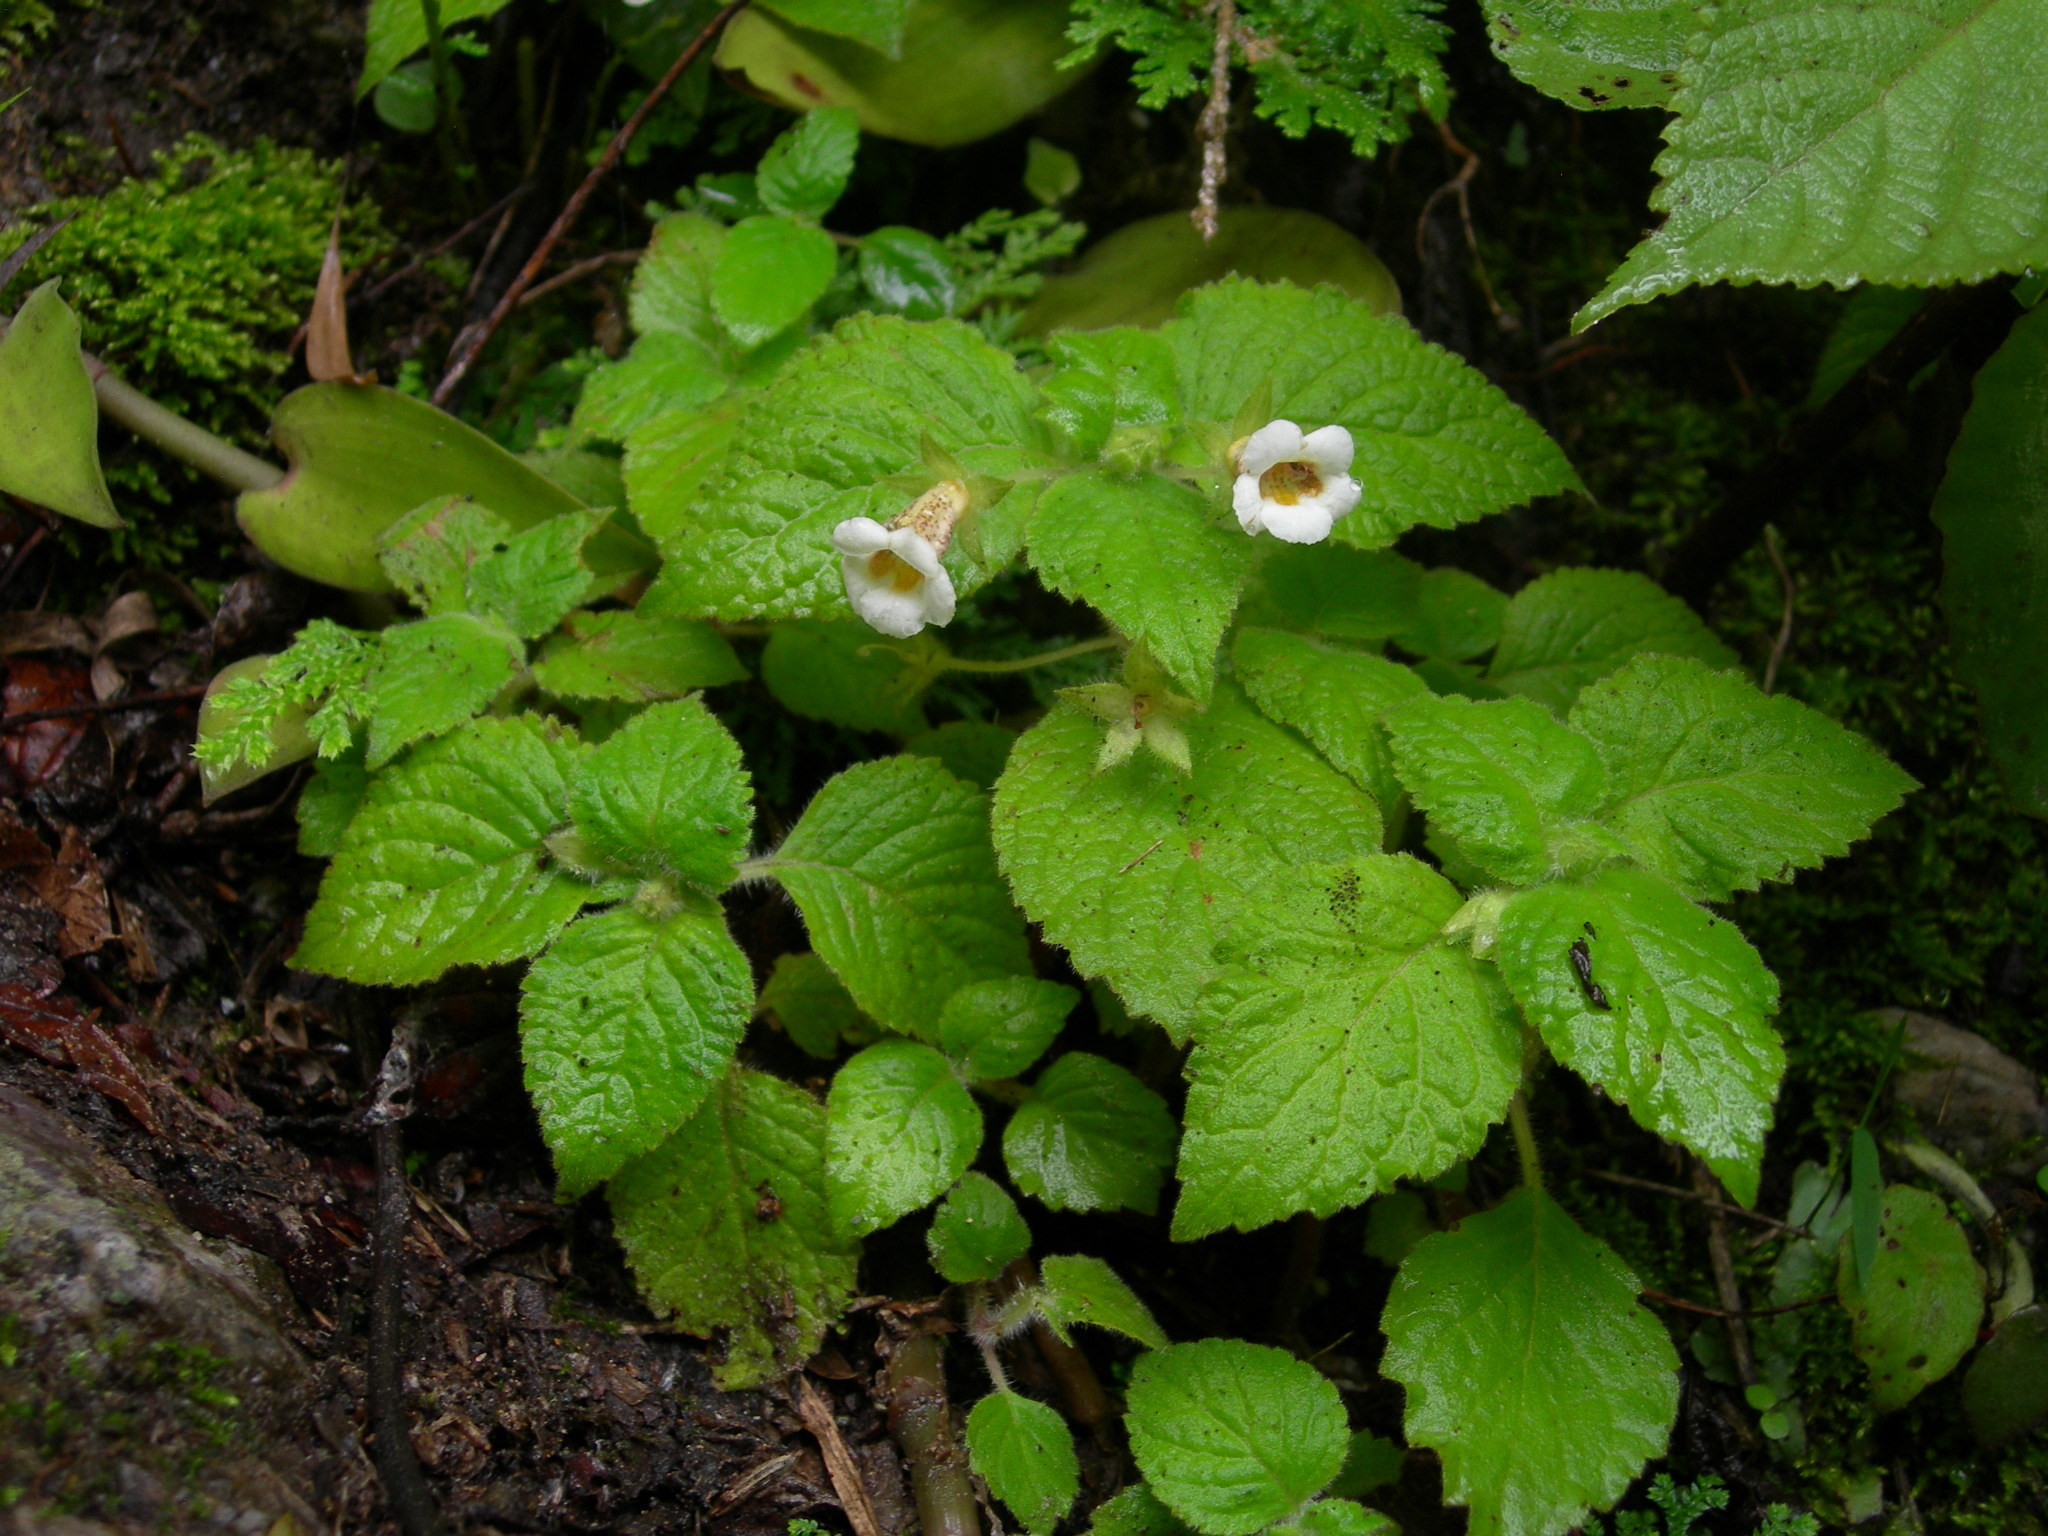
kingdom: Plantae
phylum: Tracheophyta
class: Magnoliopsida
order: Lamiales
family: Gesneriaceae
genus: Achimenes
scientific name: Achimenes misera
